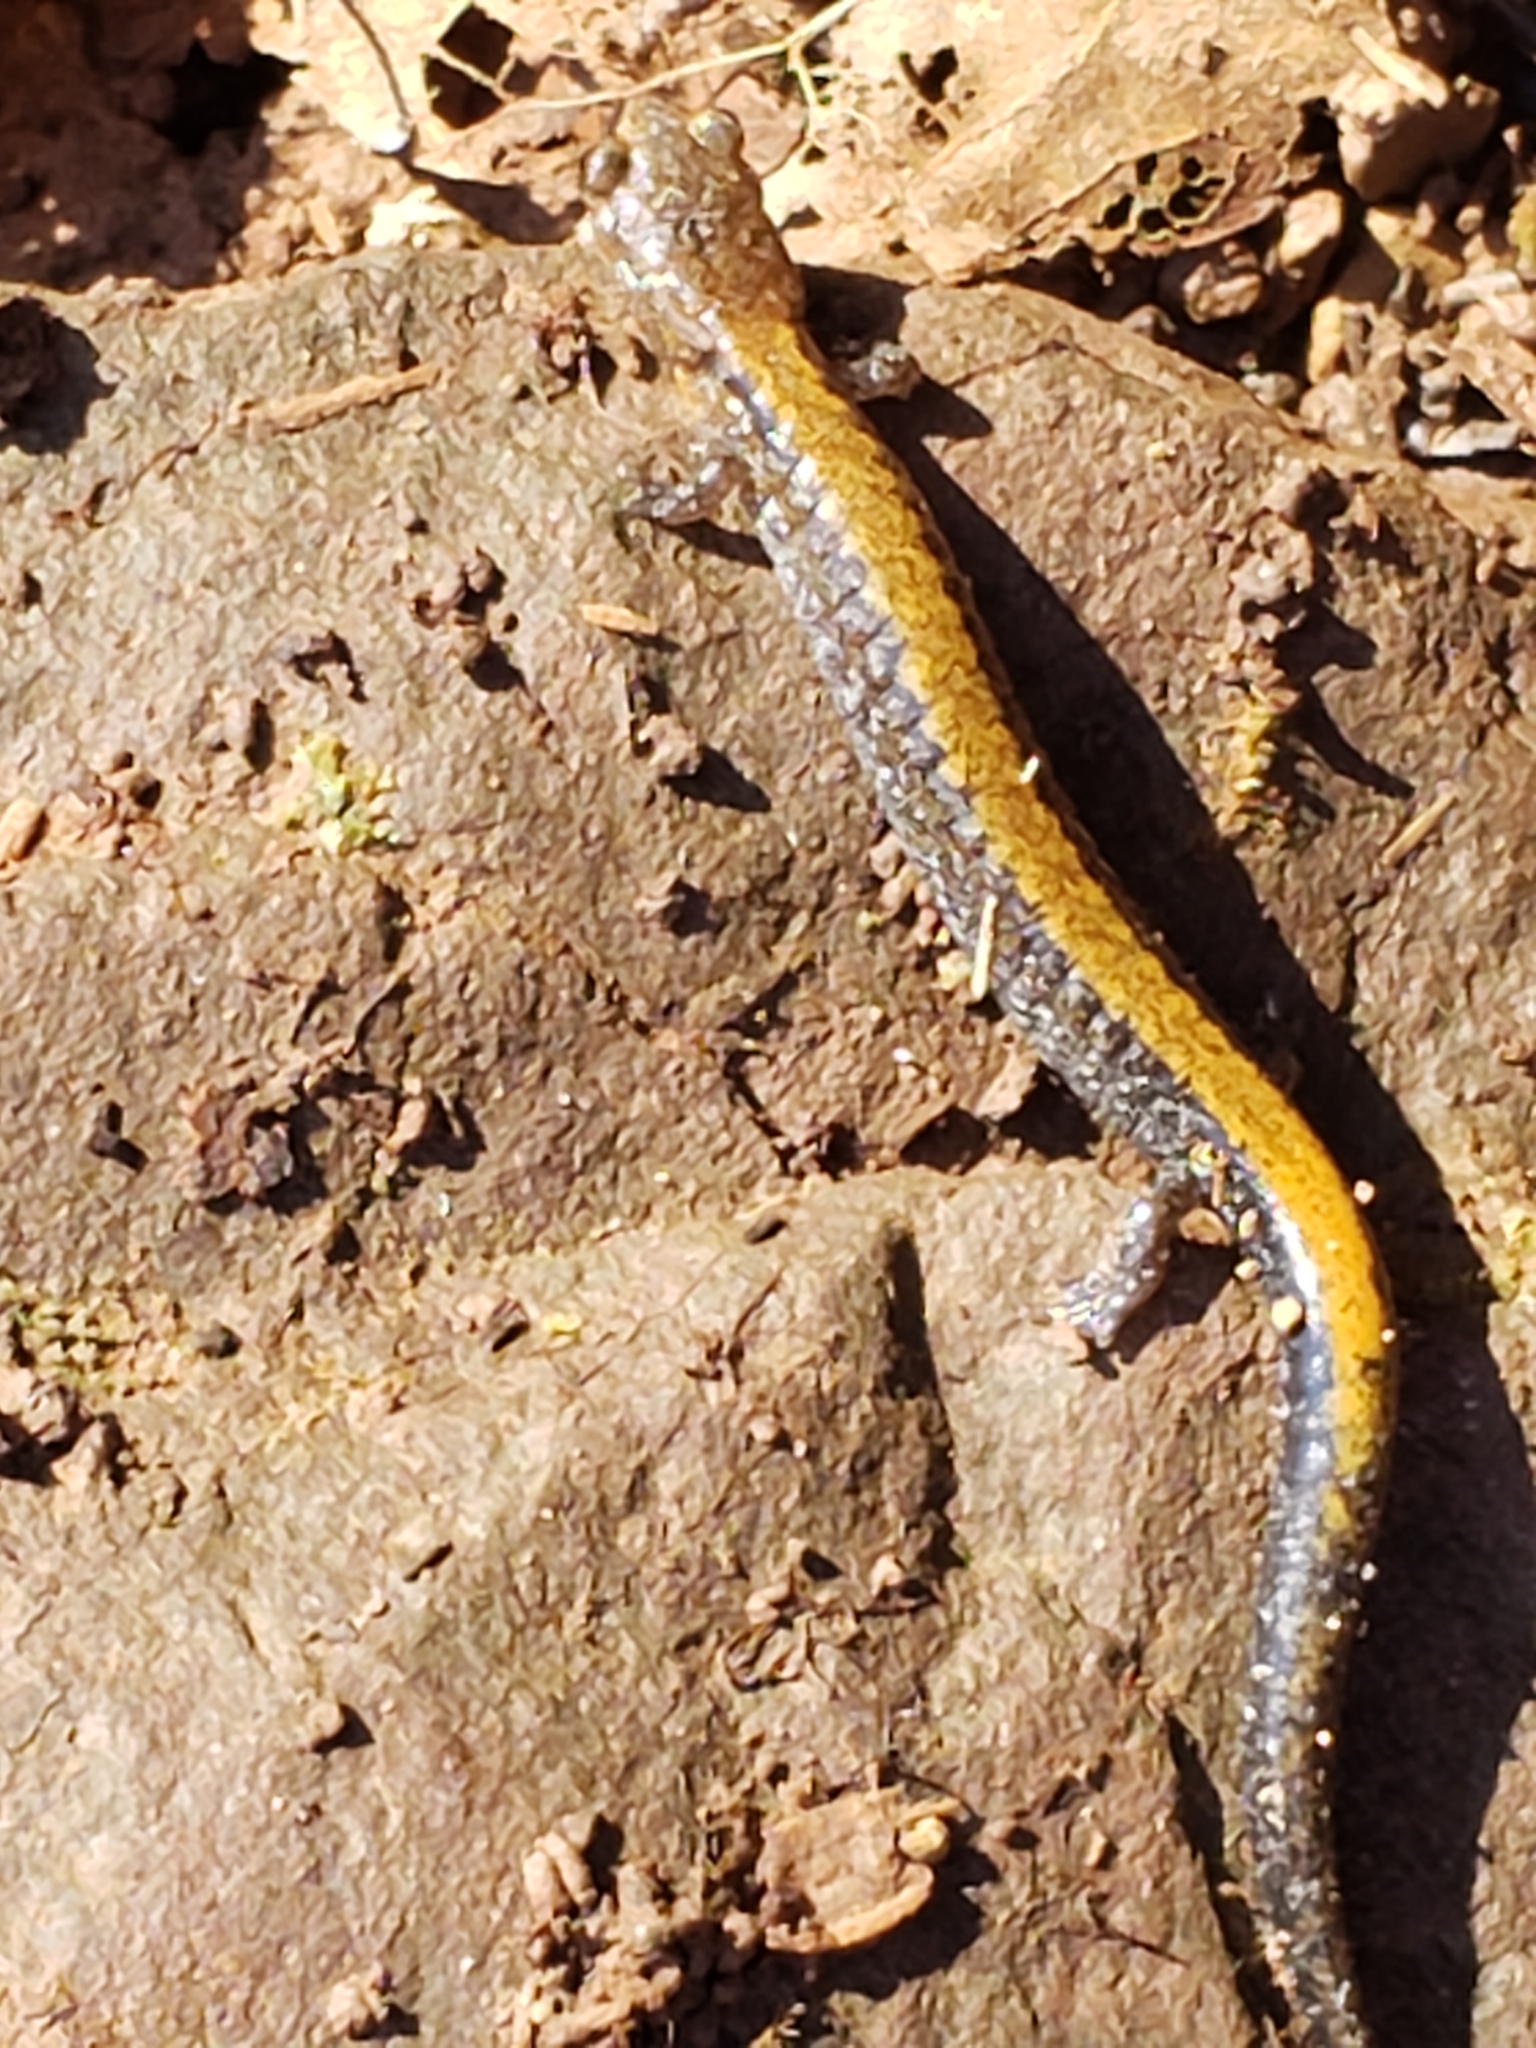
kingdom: Animalia
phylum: Chordata
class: Amphibia
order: Caudata
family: Plethodontidae
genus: Plethodon
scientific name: Plethodon cinereus
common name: Redback salamander
